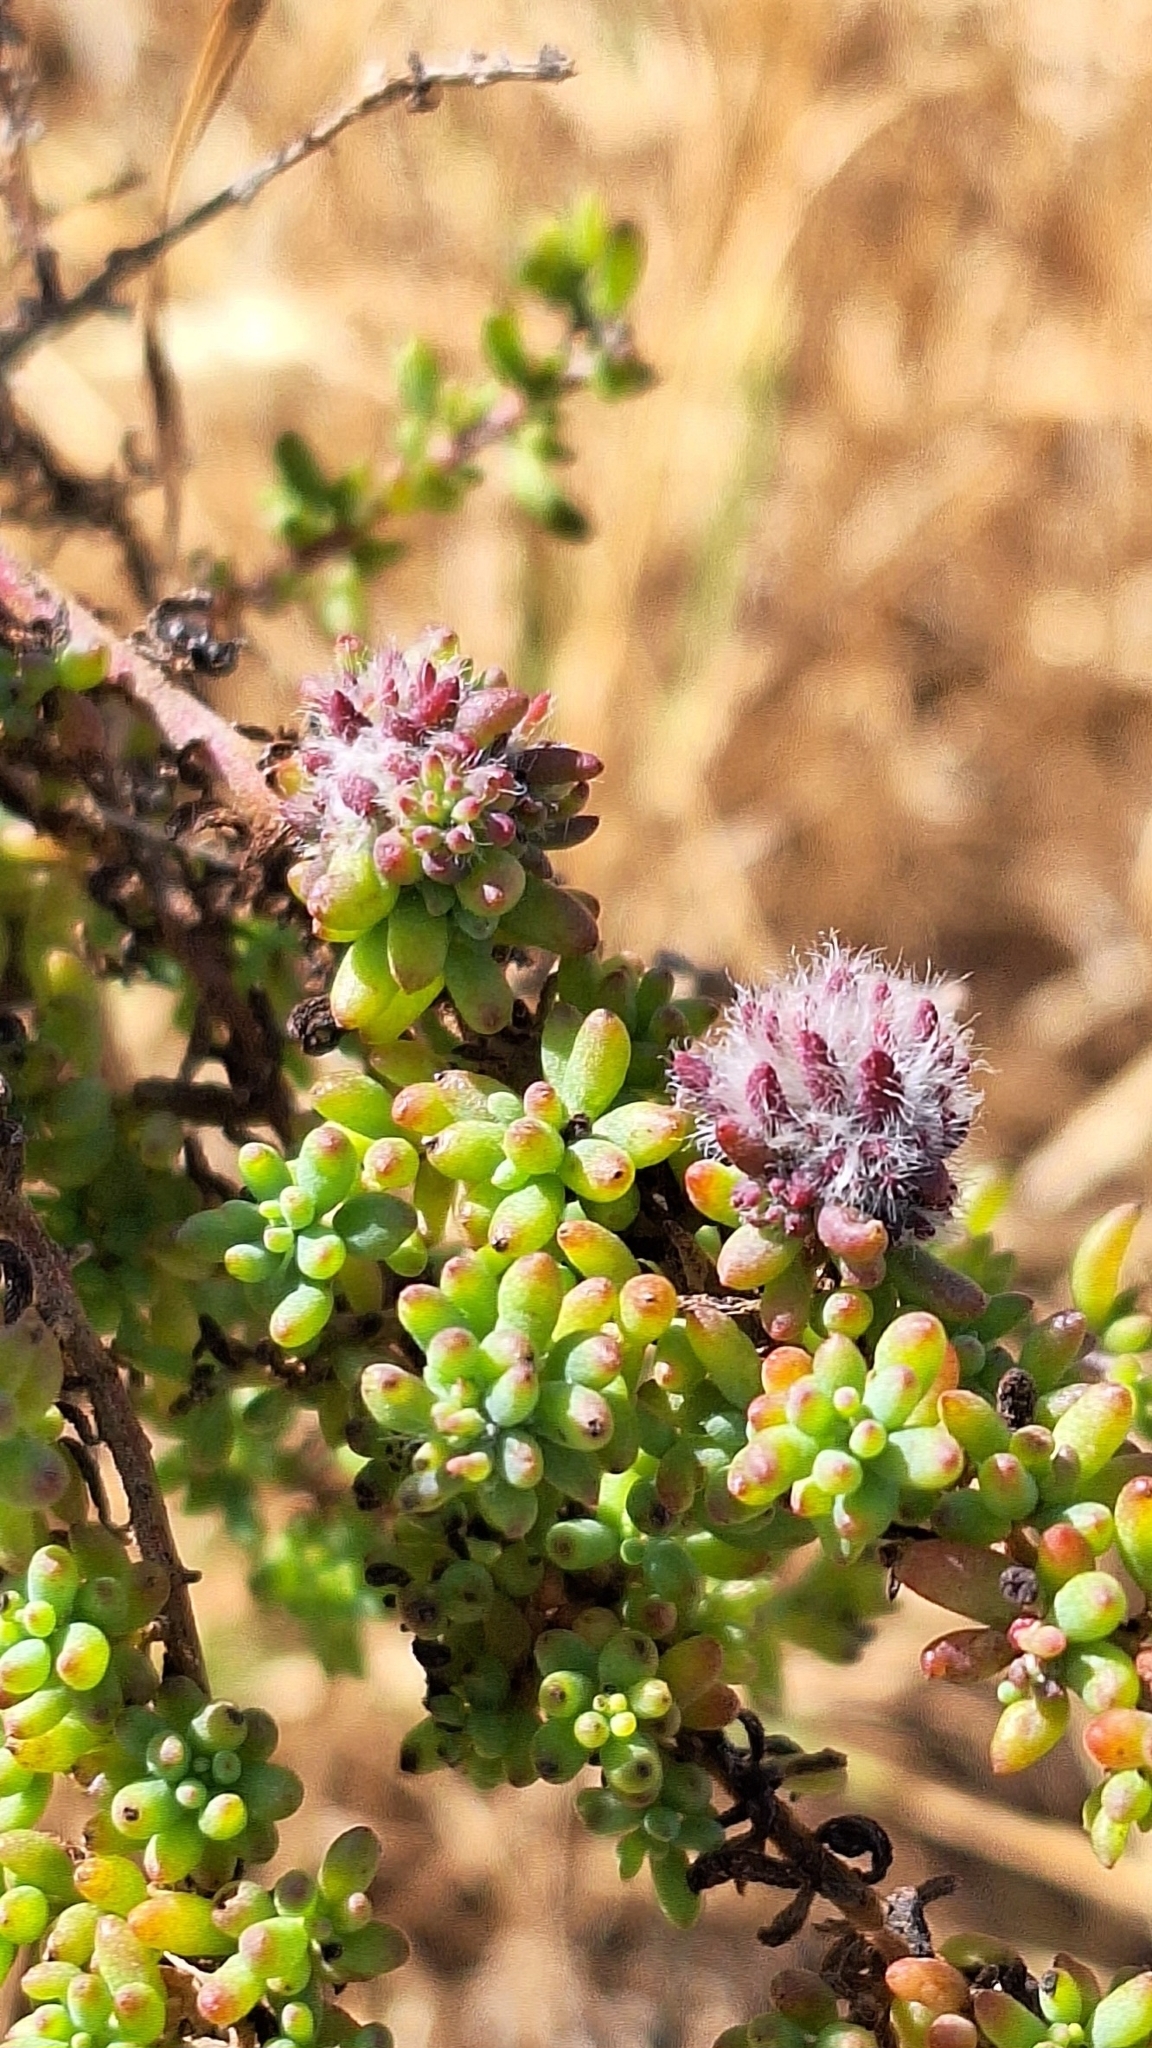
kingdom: Animalia
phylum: Arthropoda
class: Insecta
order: Diptera
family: Cecidomyiidae
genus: Dactylasioptera
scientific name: Dactylasioptera milnae
